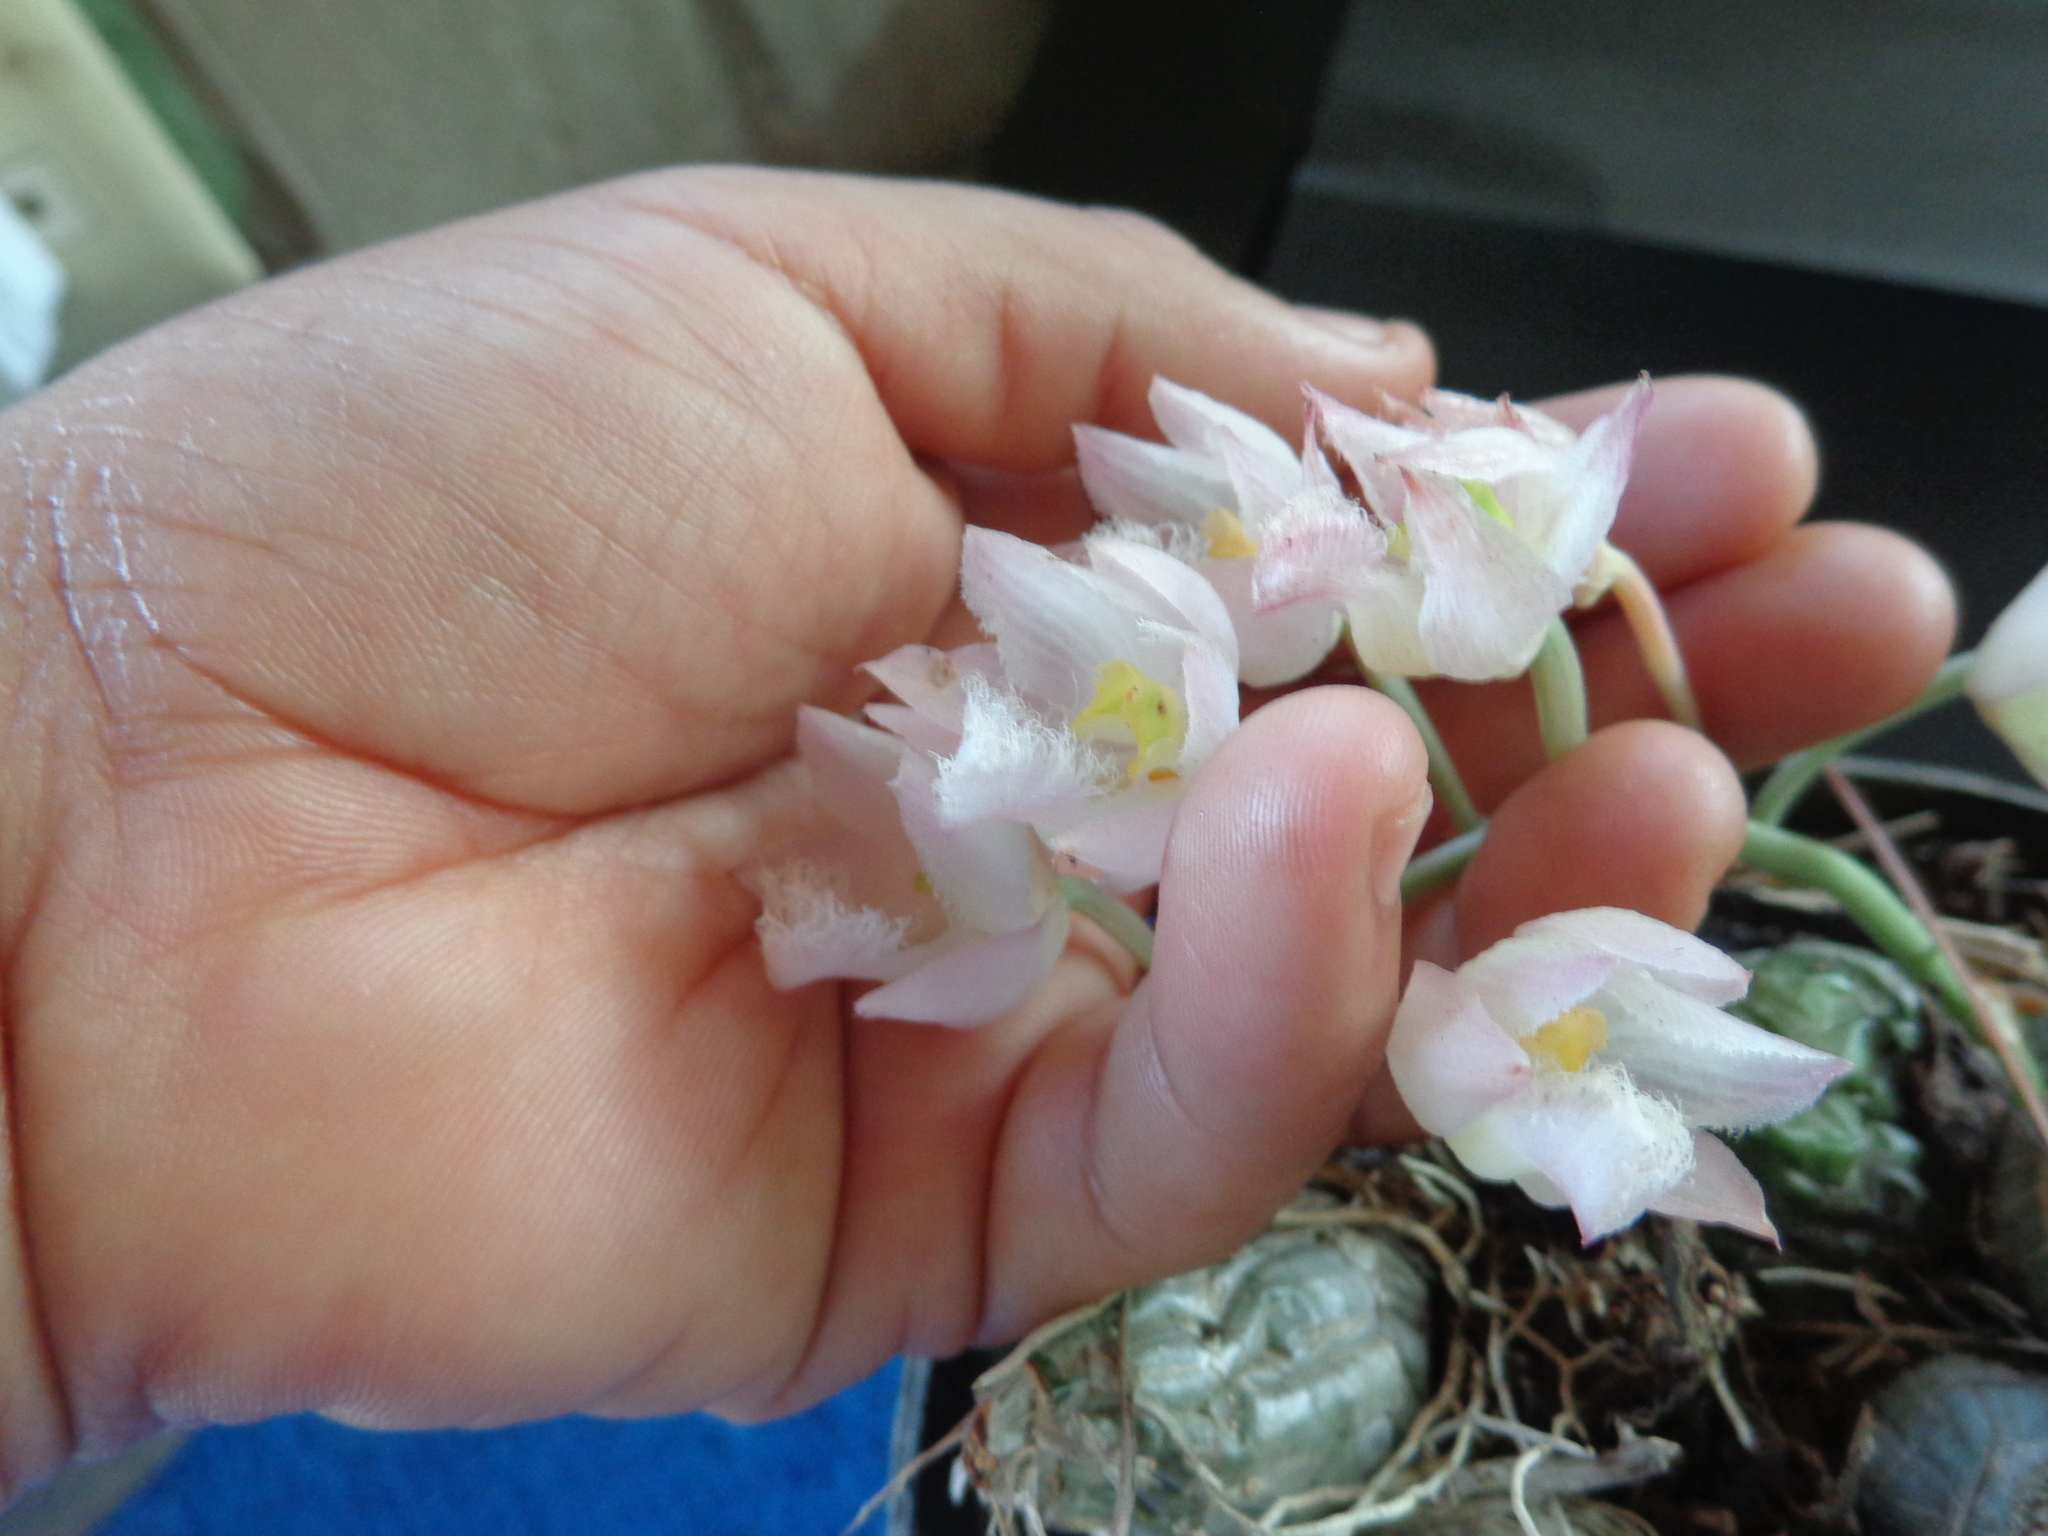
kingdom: Plantae
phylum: Tracheophyta
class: Liliopsida
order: Asparagales
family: Orchidaceae
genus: Clowesia
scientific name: Clowesia rosea
